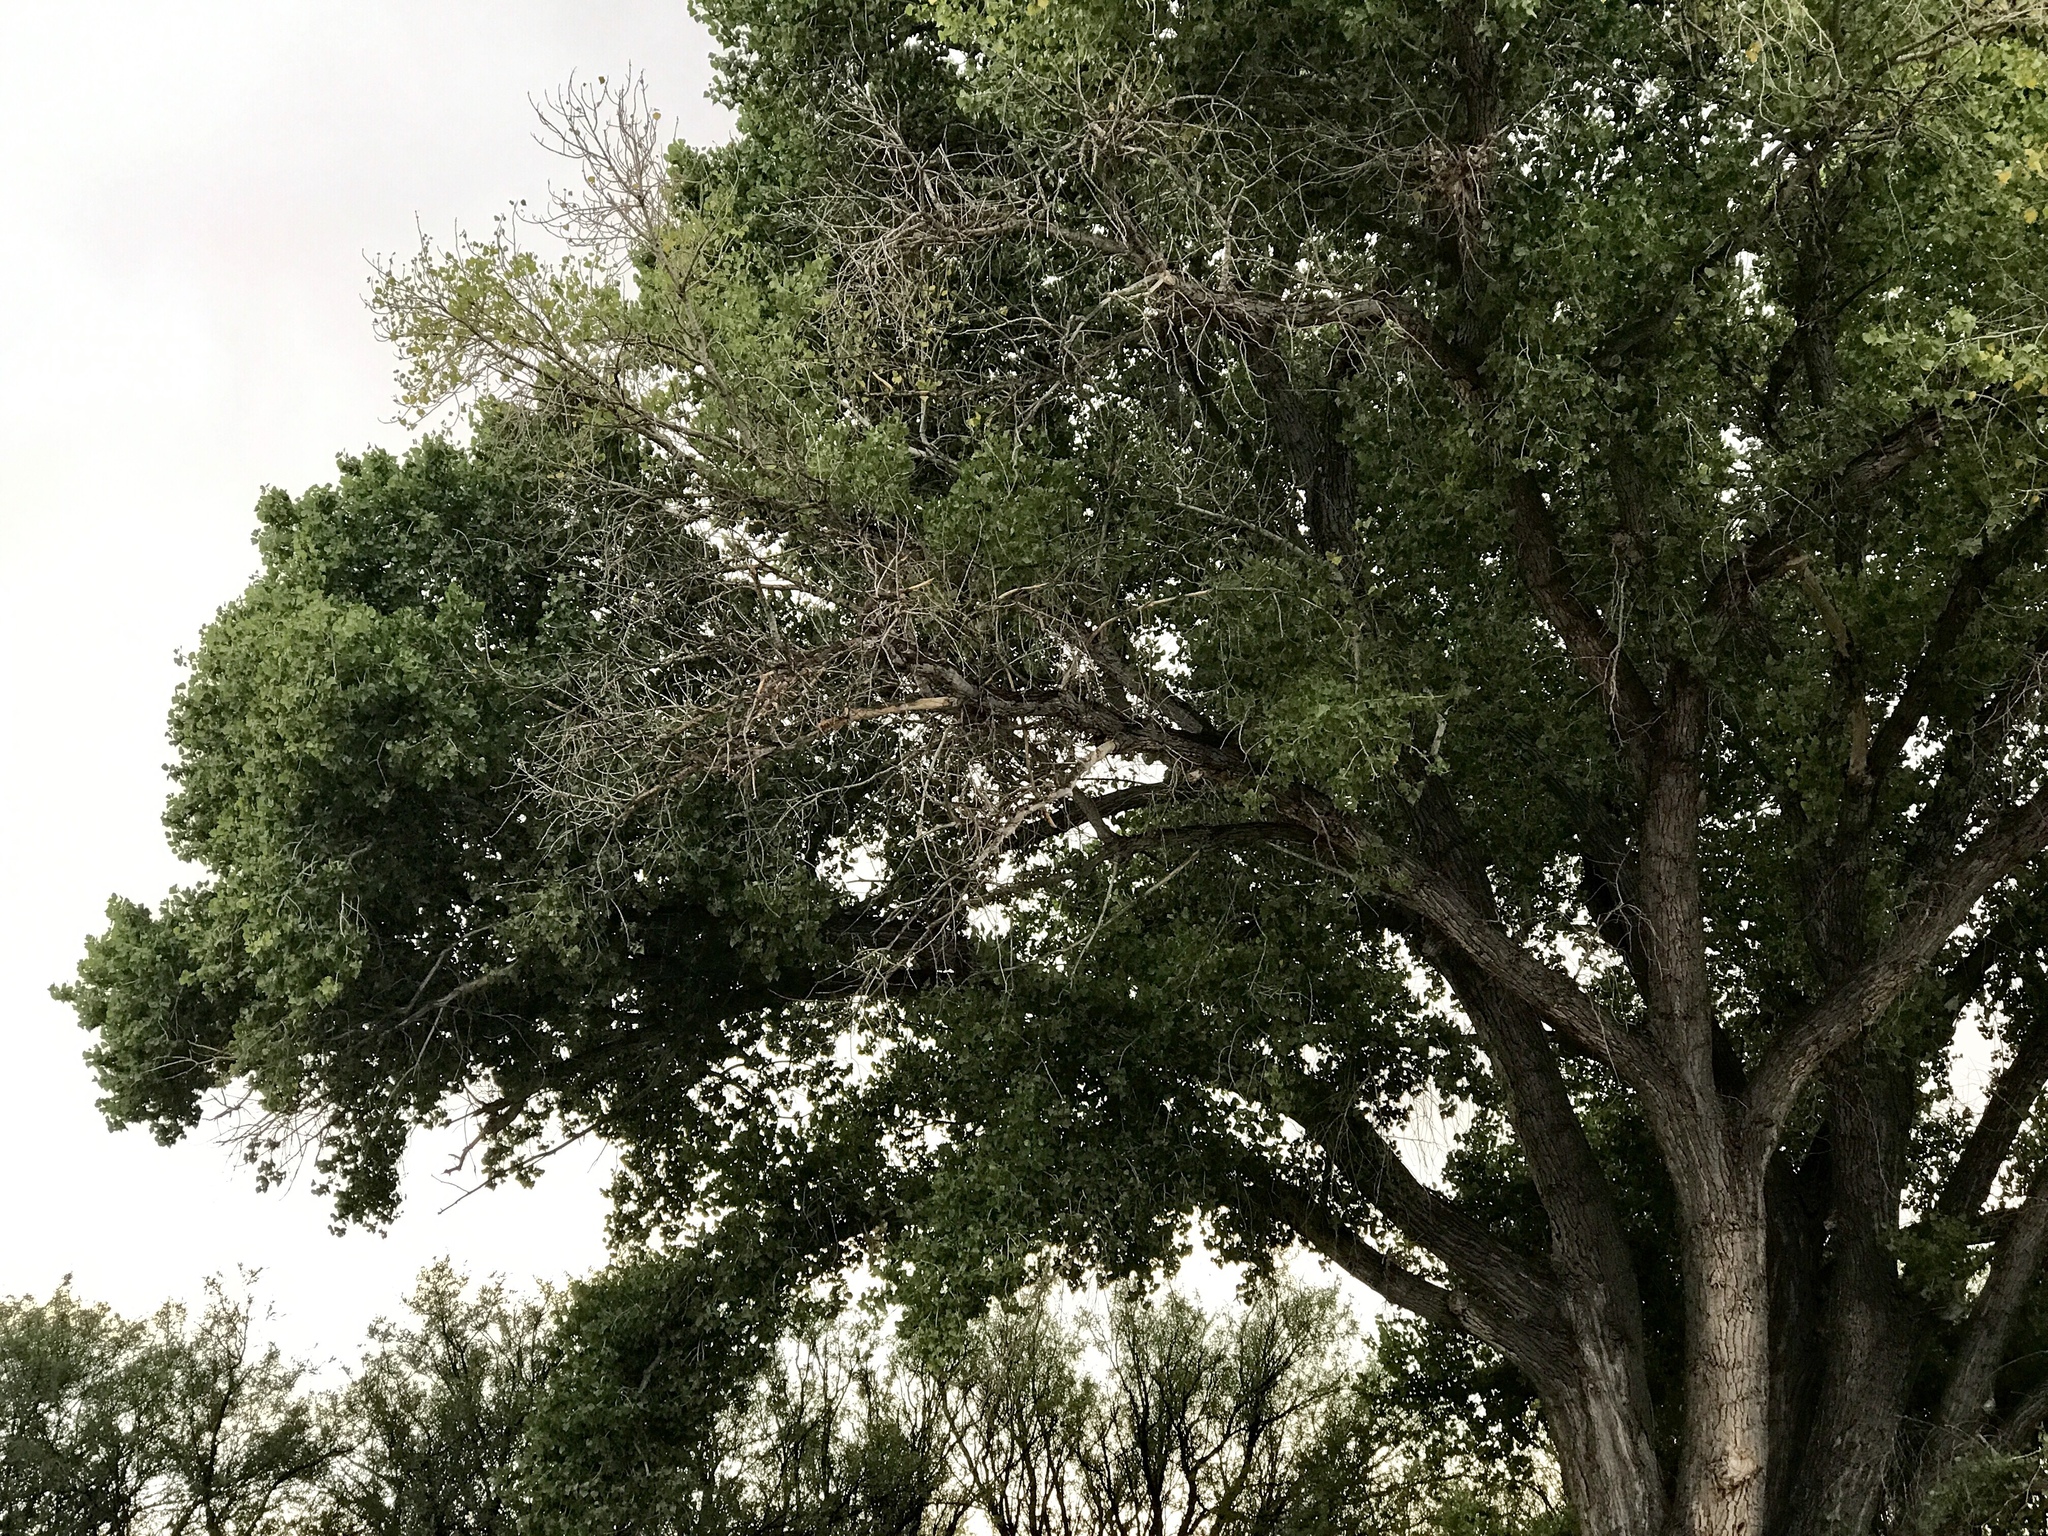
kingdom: Plantae
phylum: Tracheophyta
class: Magnoliopsida
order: Malpighiales
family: Salicaceae
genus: Populus
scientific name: Populus fremontii
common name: Fremont's cottonwood
